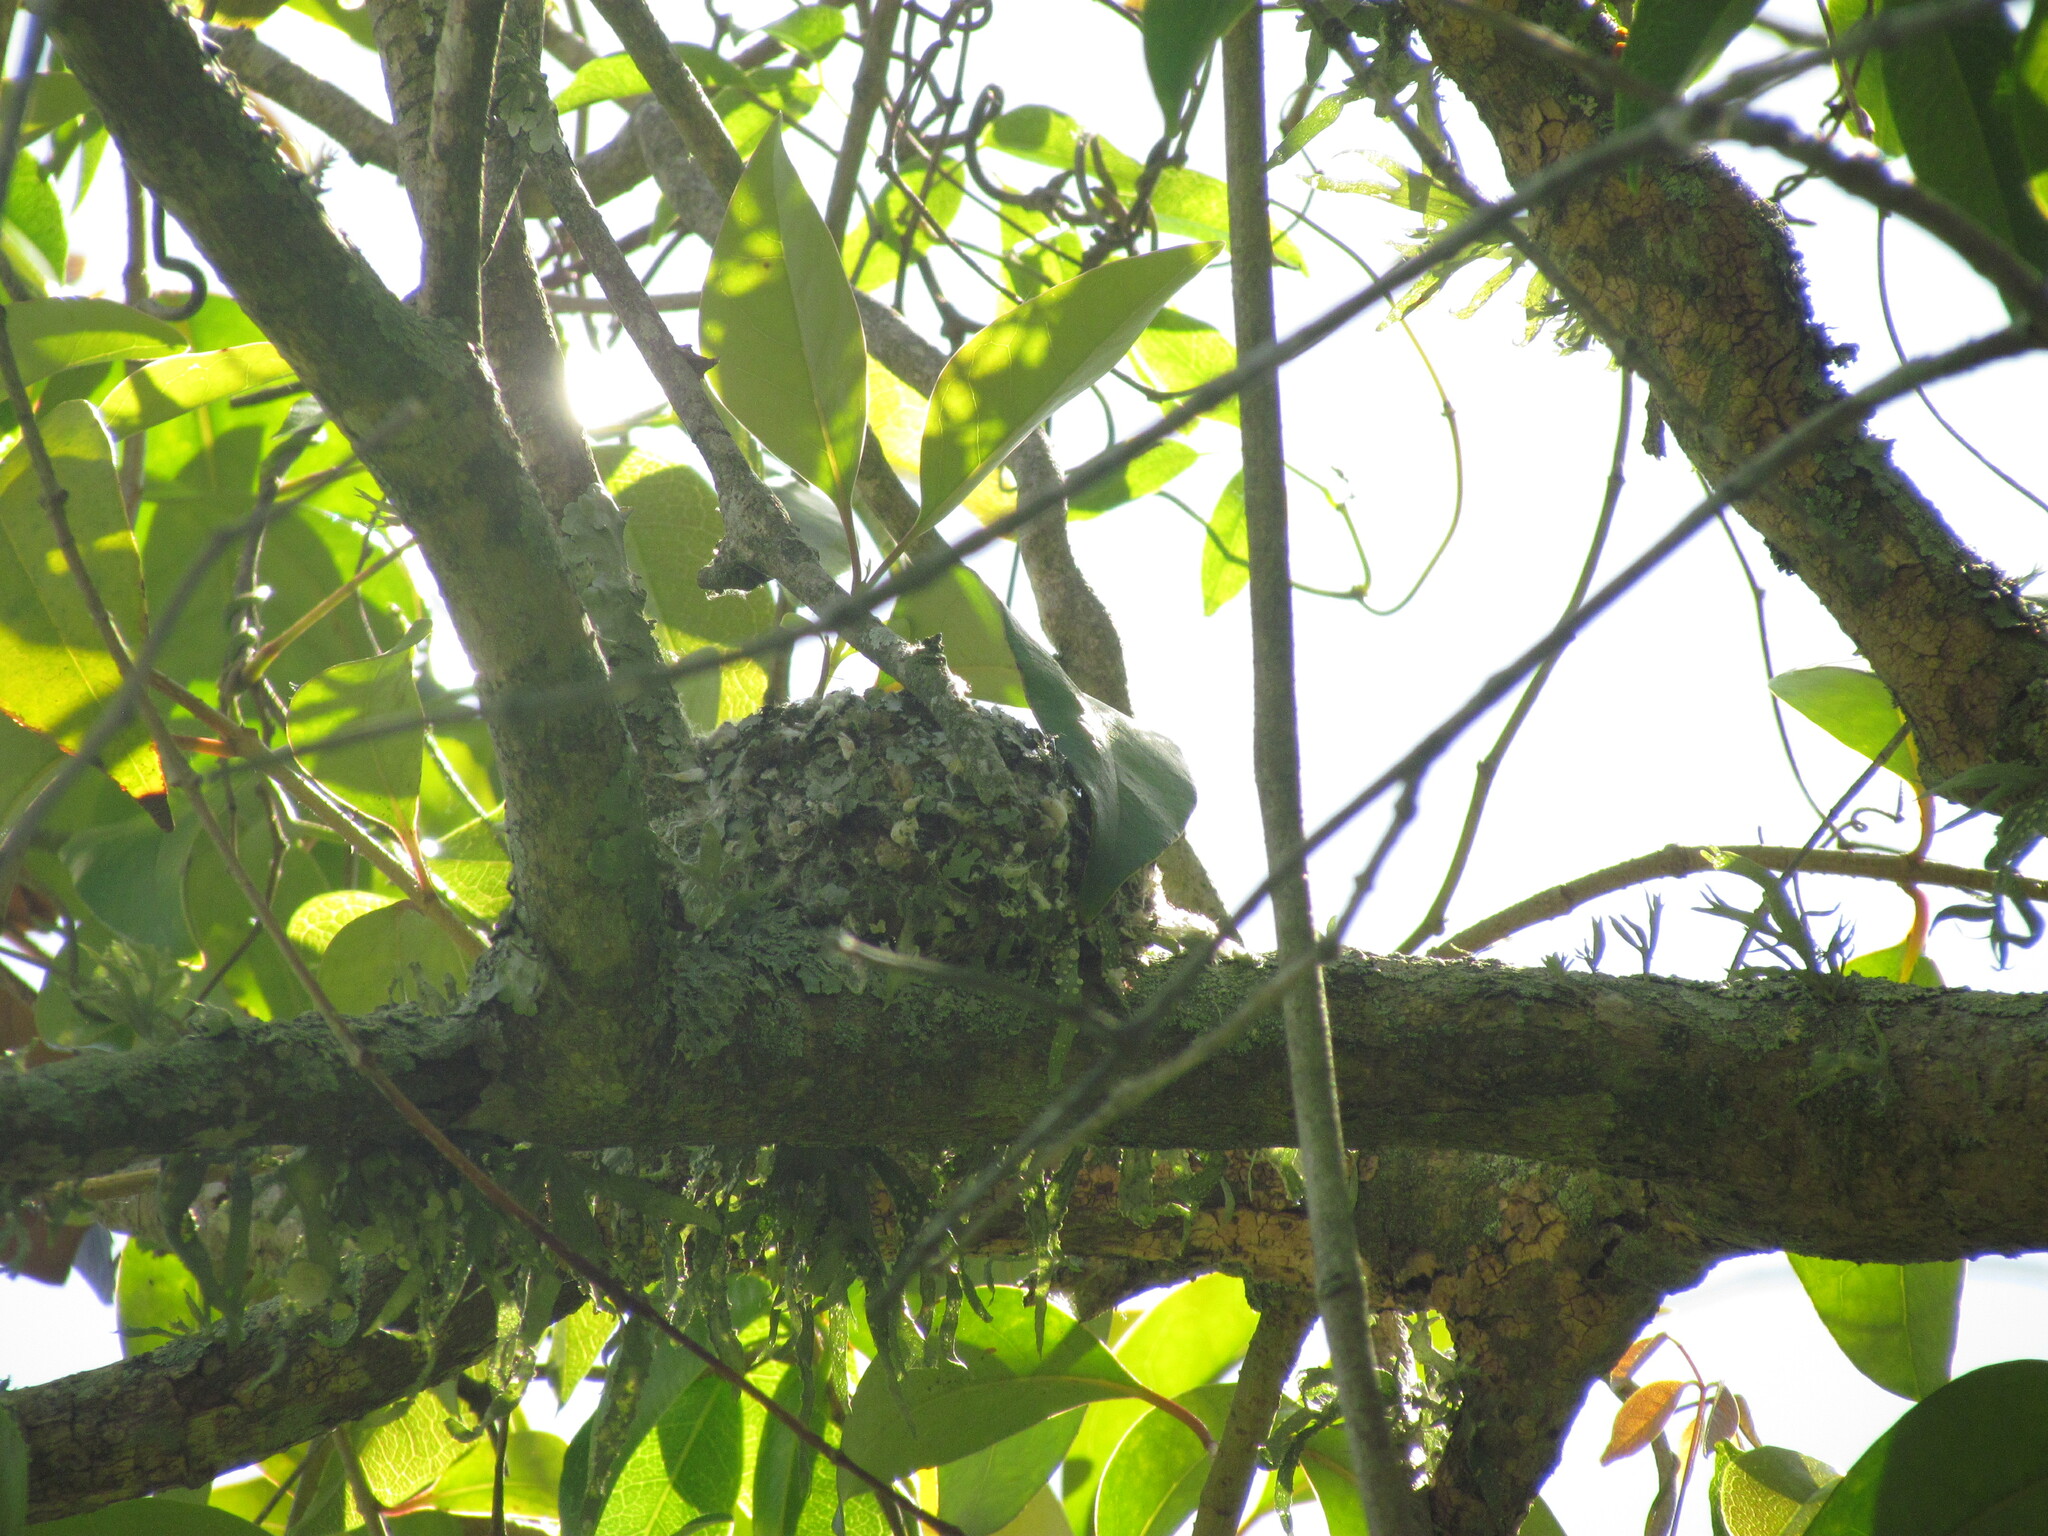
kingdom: Animalia
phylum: Chordata
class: Aves
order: Passeriformes
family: Polioptilidae
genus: Polioptila
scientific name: Polioptila dumicola
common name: Masked gnatcatcher
